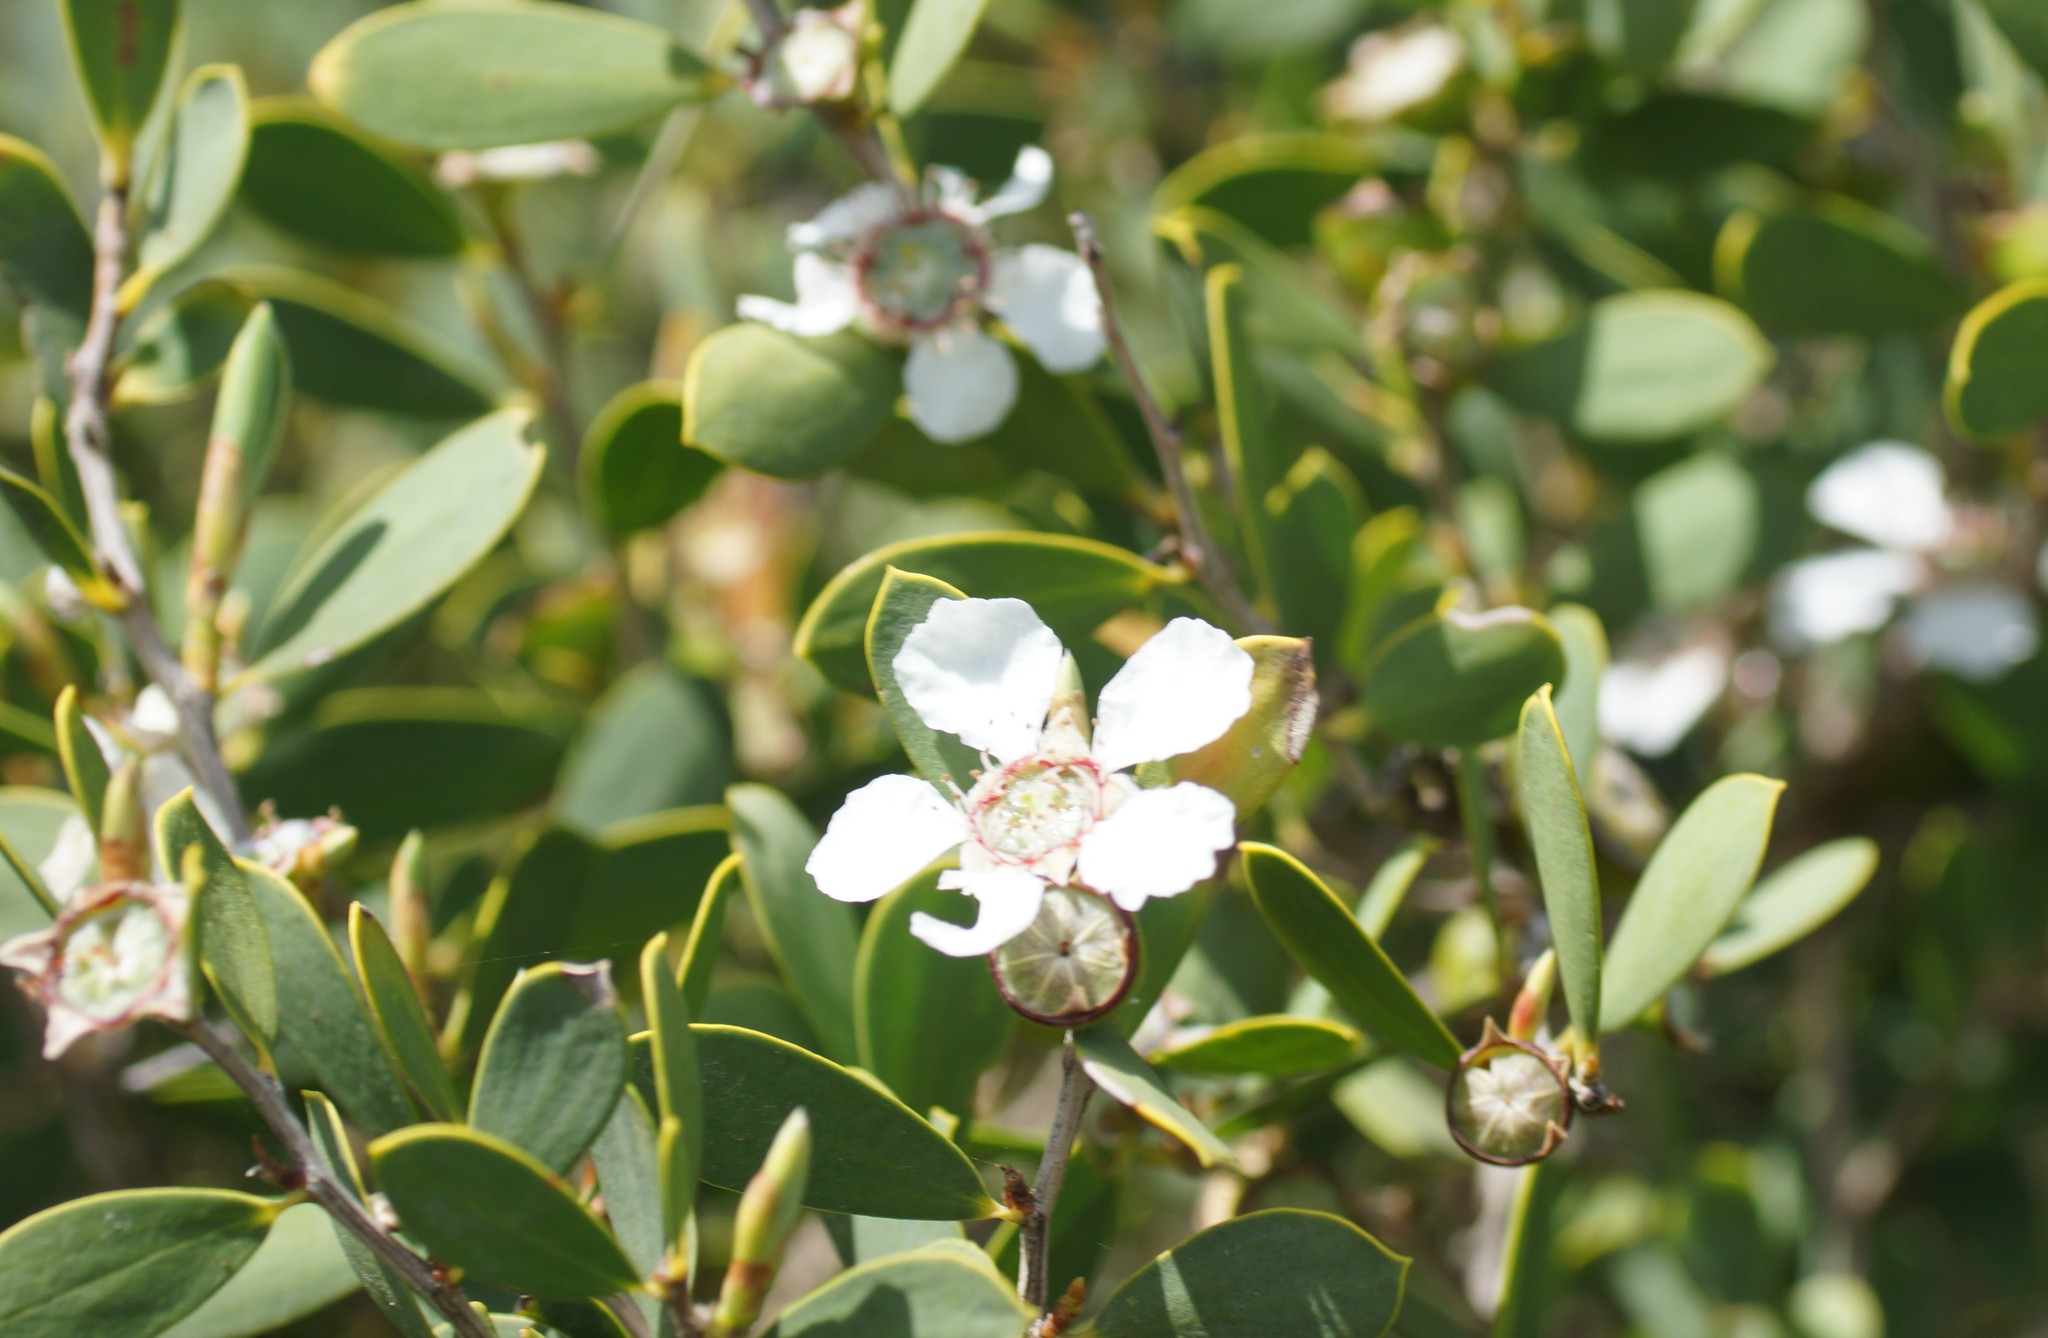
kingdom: Plantae
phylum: Tracheophyta
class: Magnoliopsida
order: Myrtales
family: Myrtaceae
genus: Leptospermum
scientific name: Leptospermum laevigatum
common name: Australian teatree
